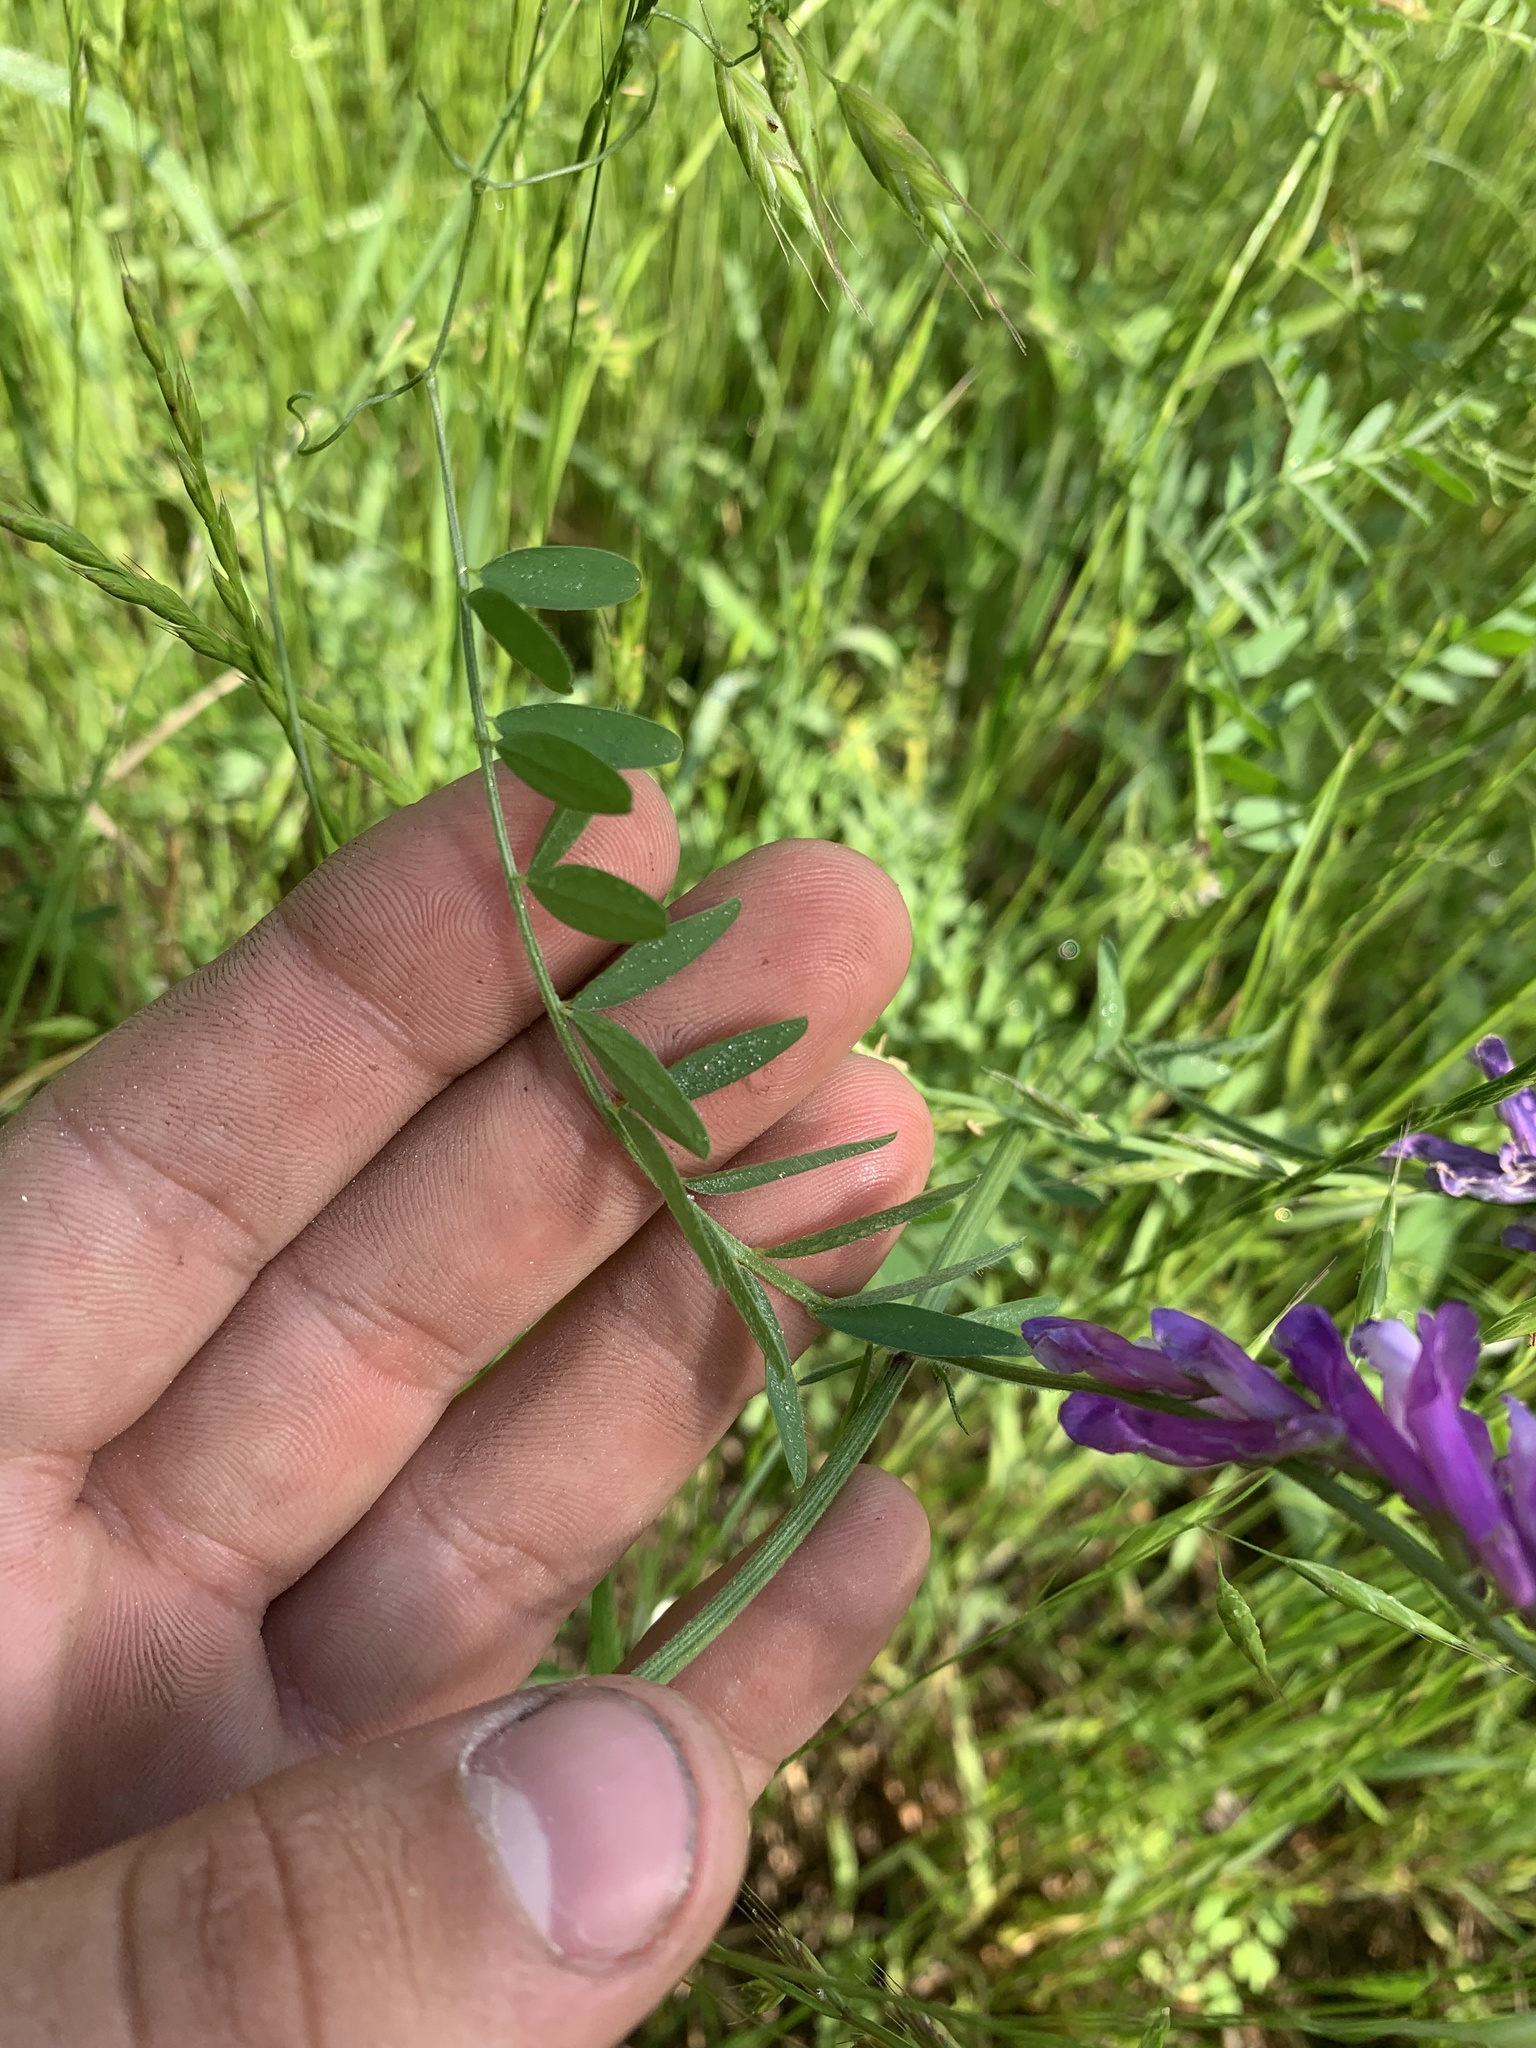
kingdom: Plantae
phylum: Tracheophyta
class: Magnoliopsida
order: Fabales
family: Fabaceae
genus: Vicia
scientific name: Vicia villosa
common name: Fodder vetch
